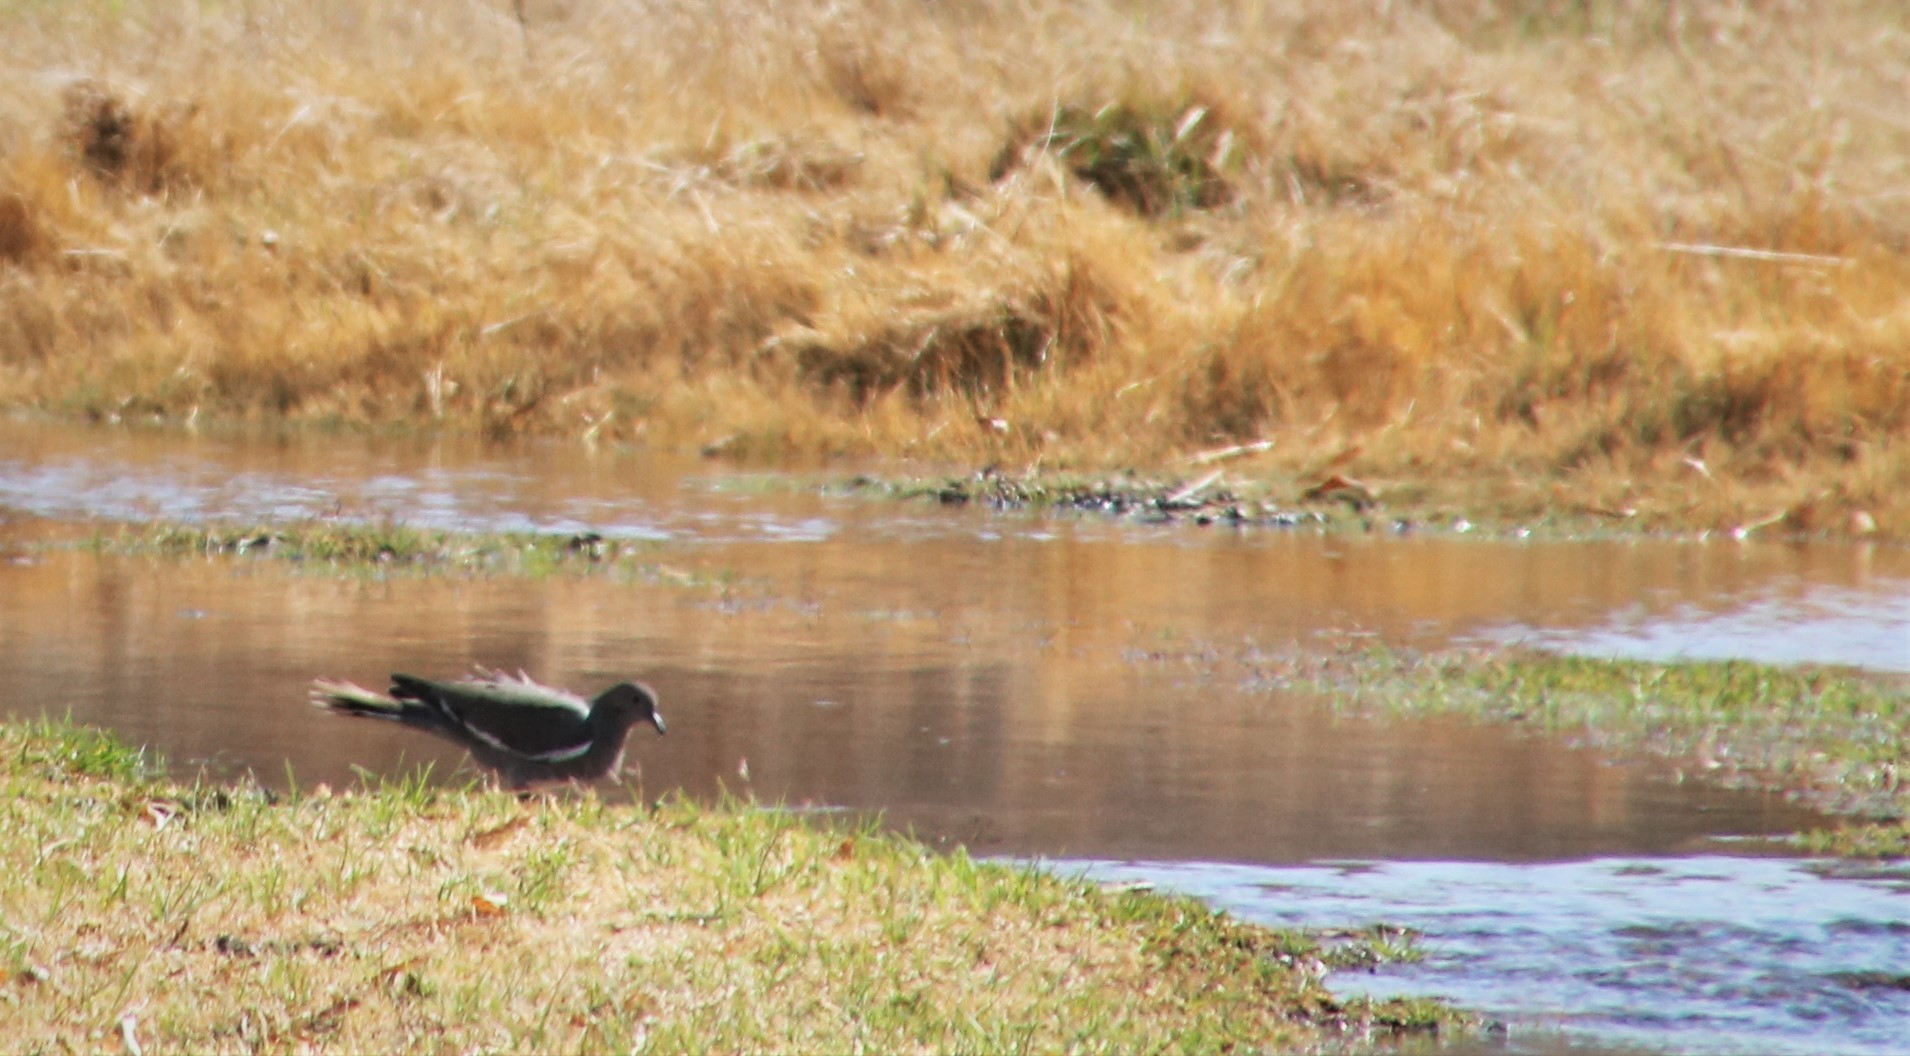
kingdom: Animalia
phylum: Chordata
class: Aves
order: Columbiformes
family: Columbidae
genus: Zenaida
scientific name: Zenaida asiatica
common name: White-winged dove
